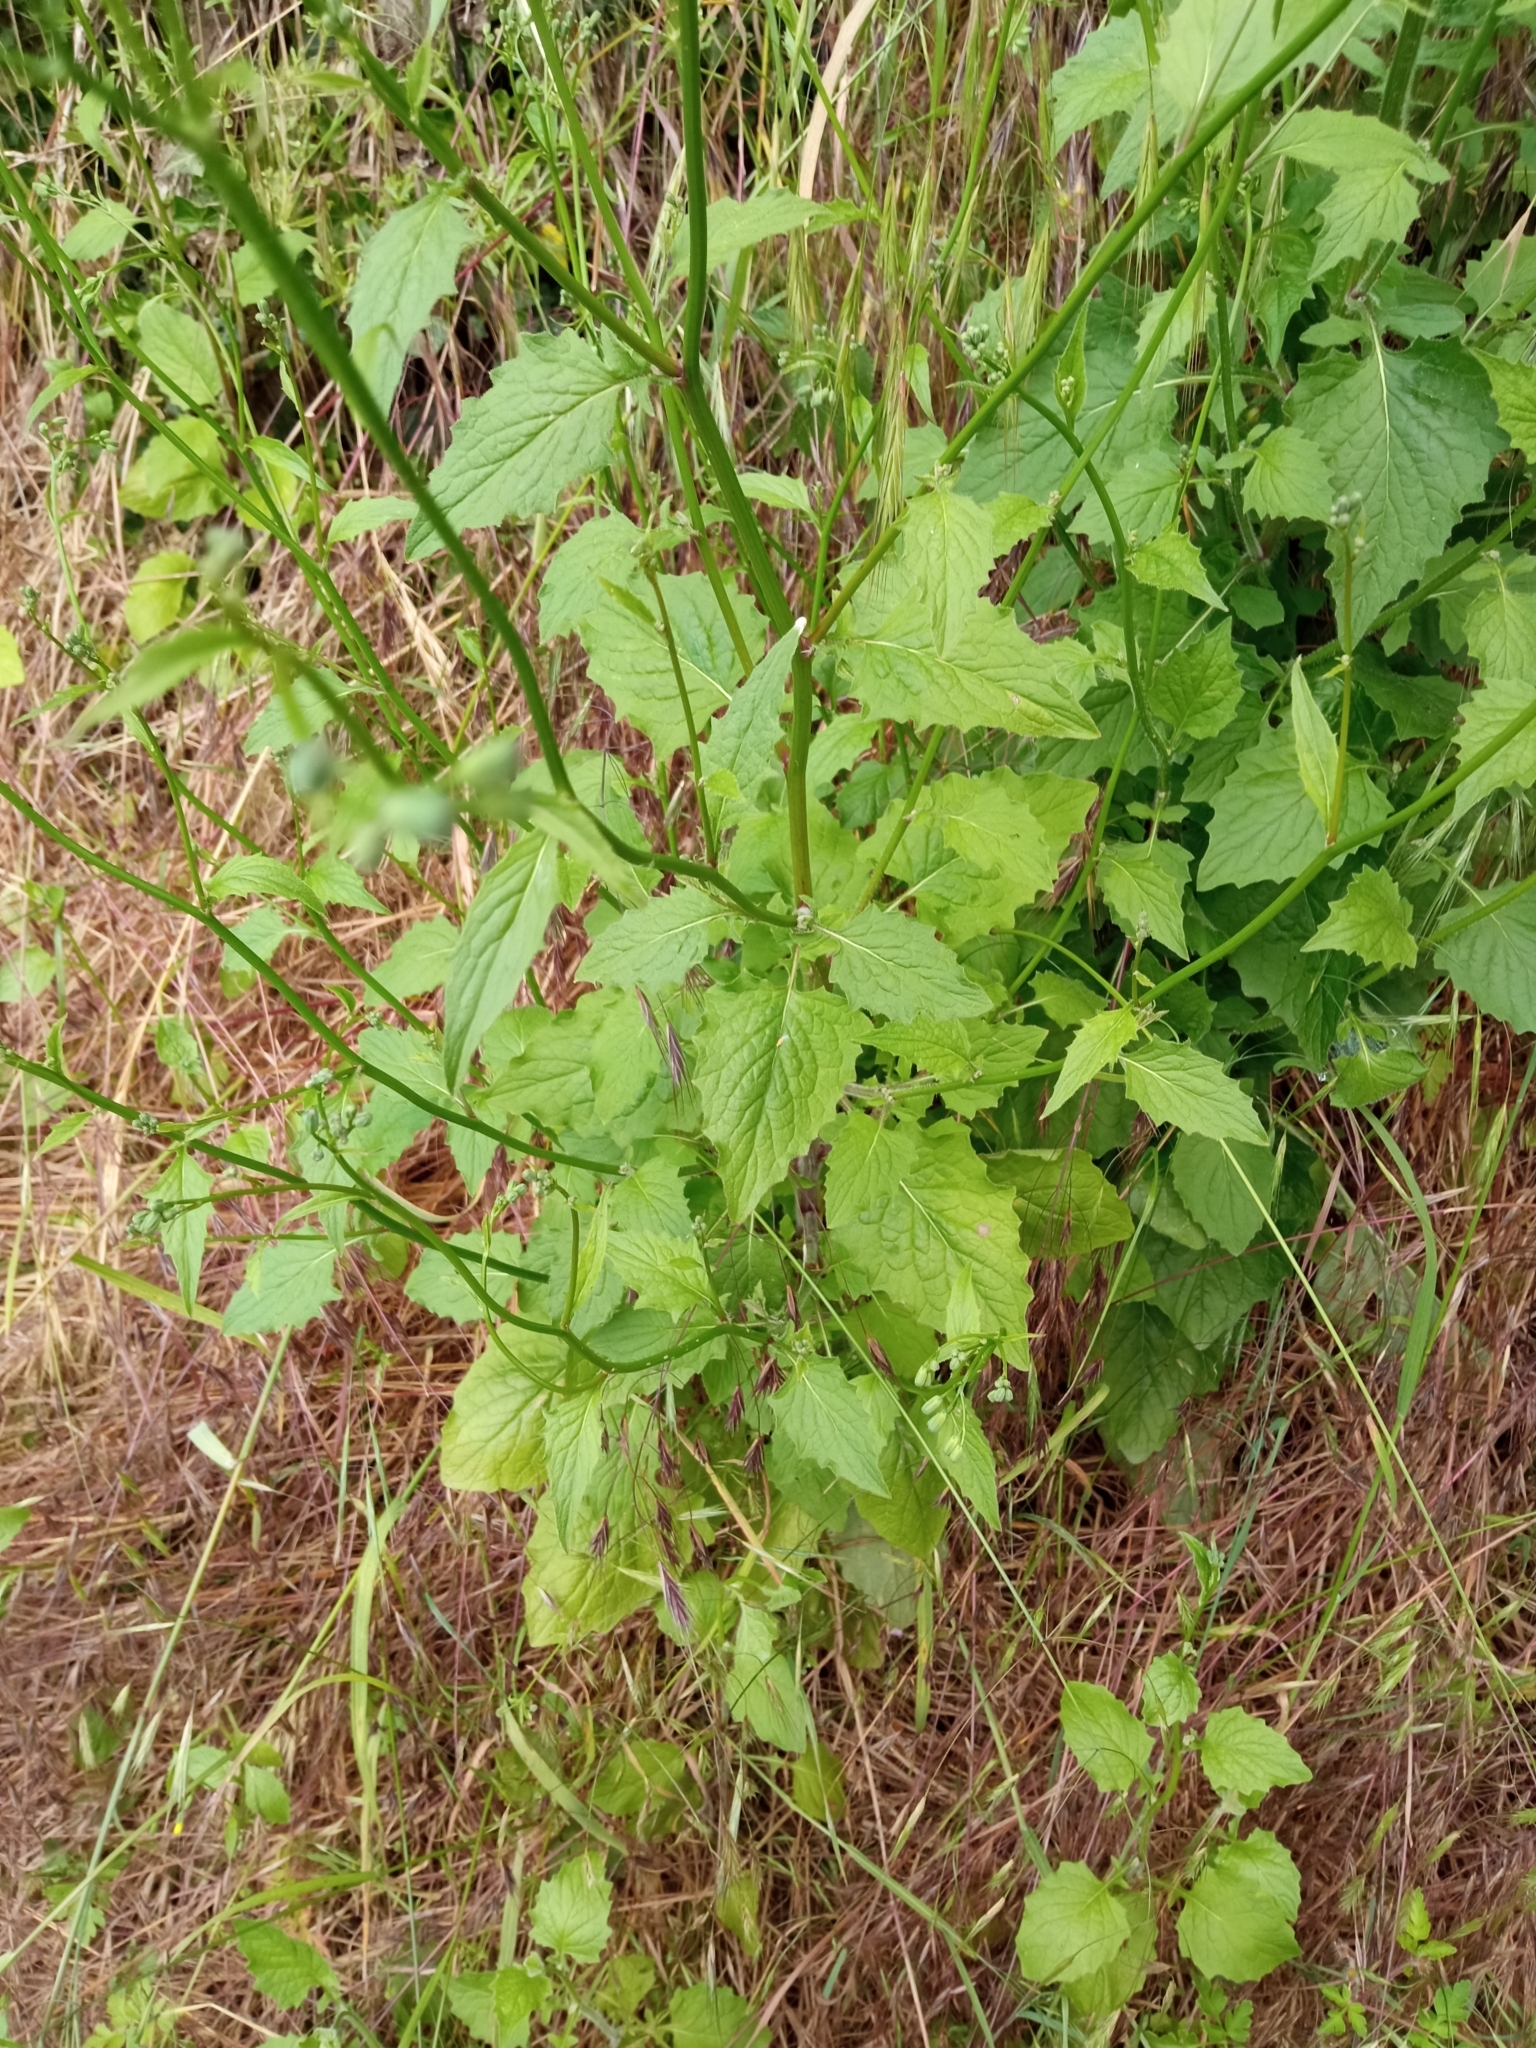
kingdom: Plantae
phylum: Tracheophyta
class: Magnoliopsida
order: Asterales
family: Asteraceae
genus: Lapsana
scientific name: Lapsana communis
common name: Nipplewort
